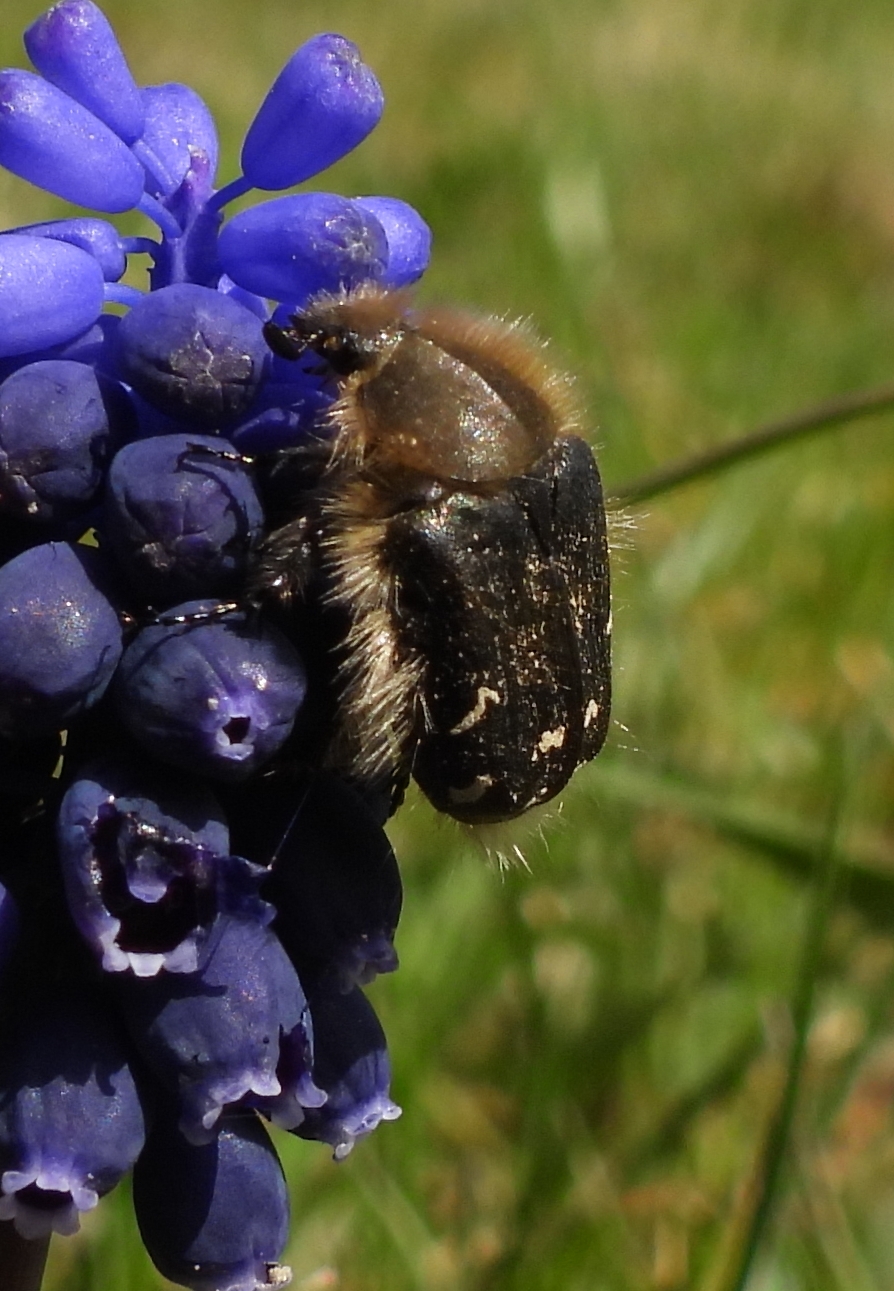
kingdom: Animalia
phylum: Arthropoda
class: Insecta
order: Coleoptera
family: Scarabaeidae
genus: Tropinota
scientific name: Tropinota hirta
